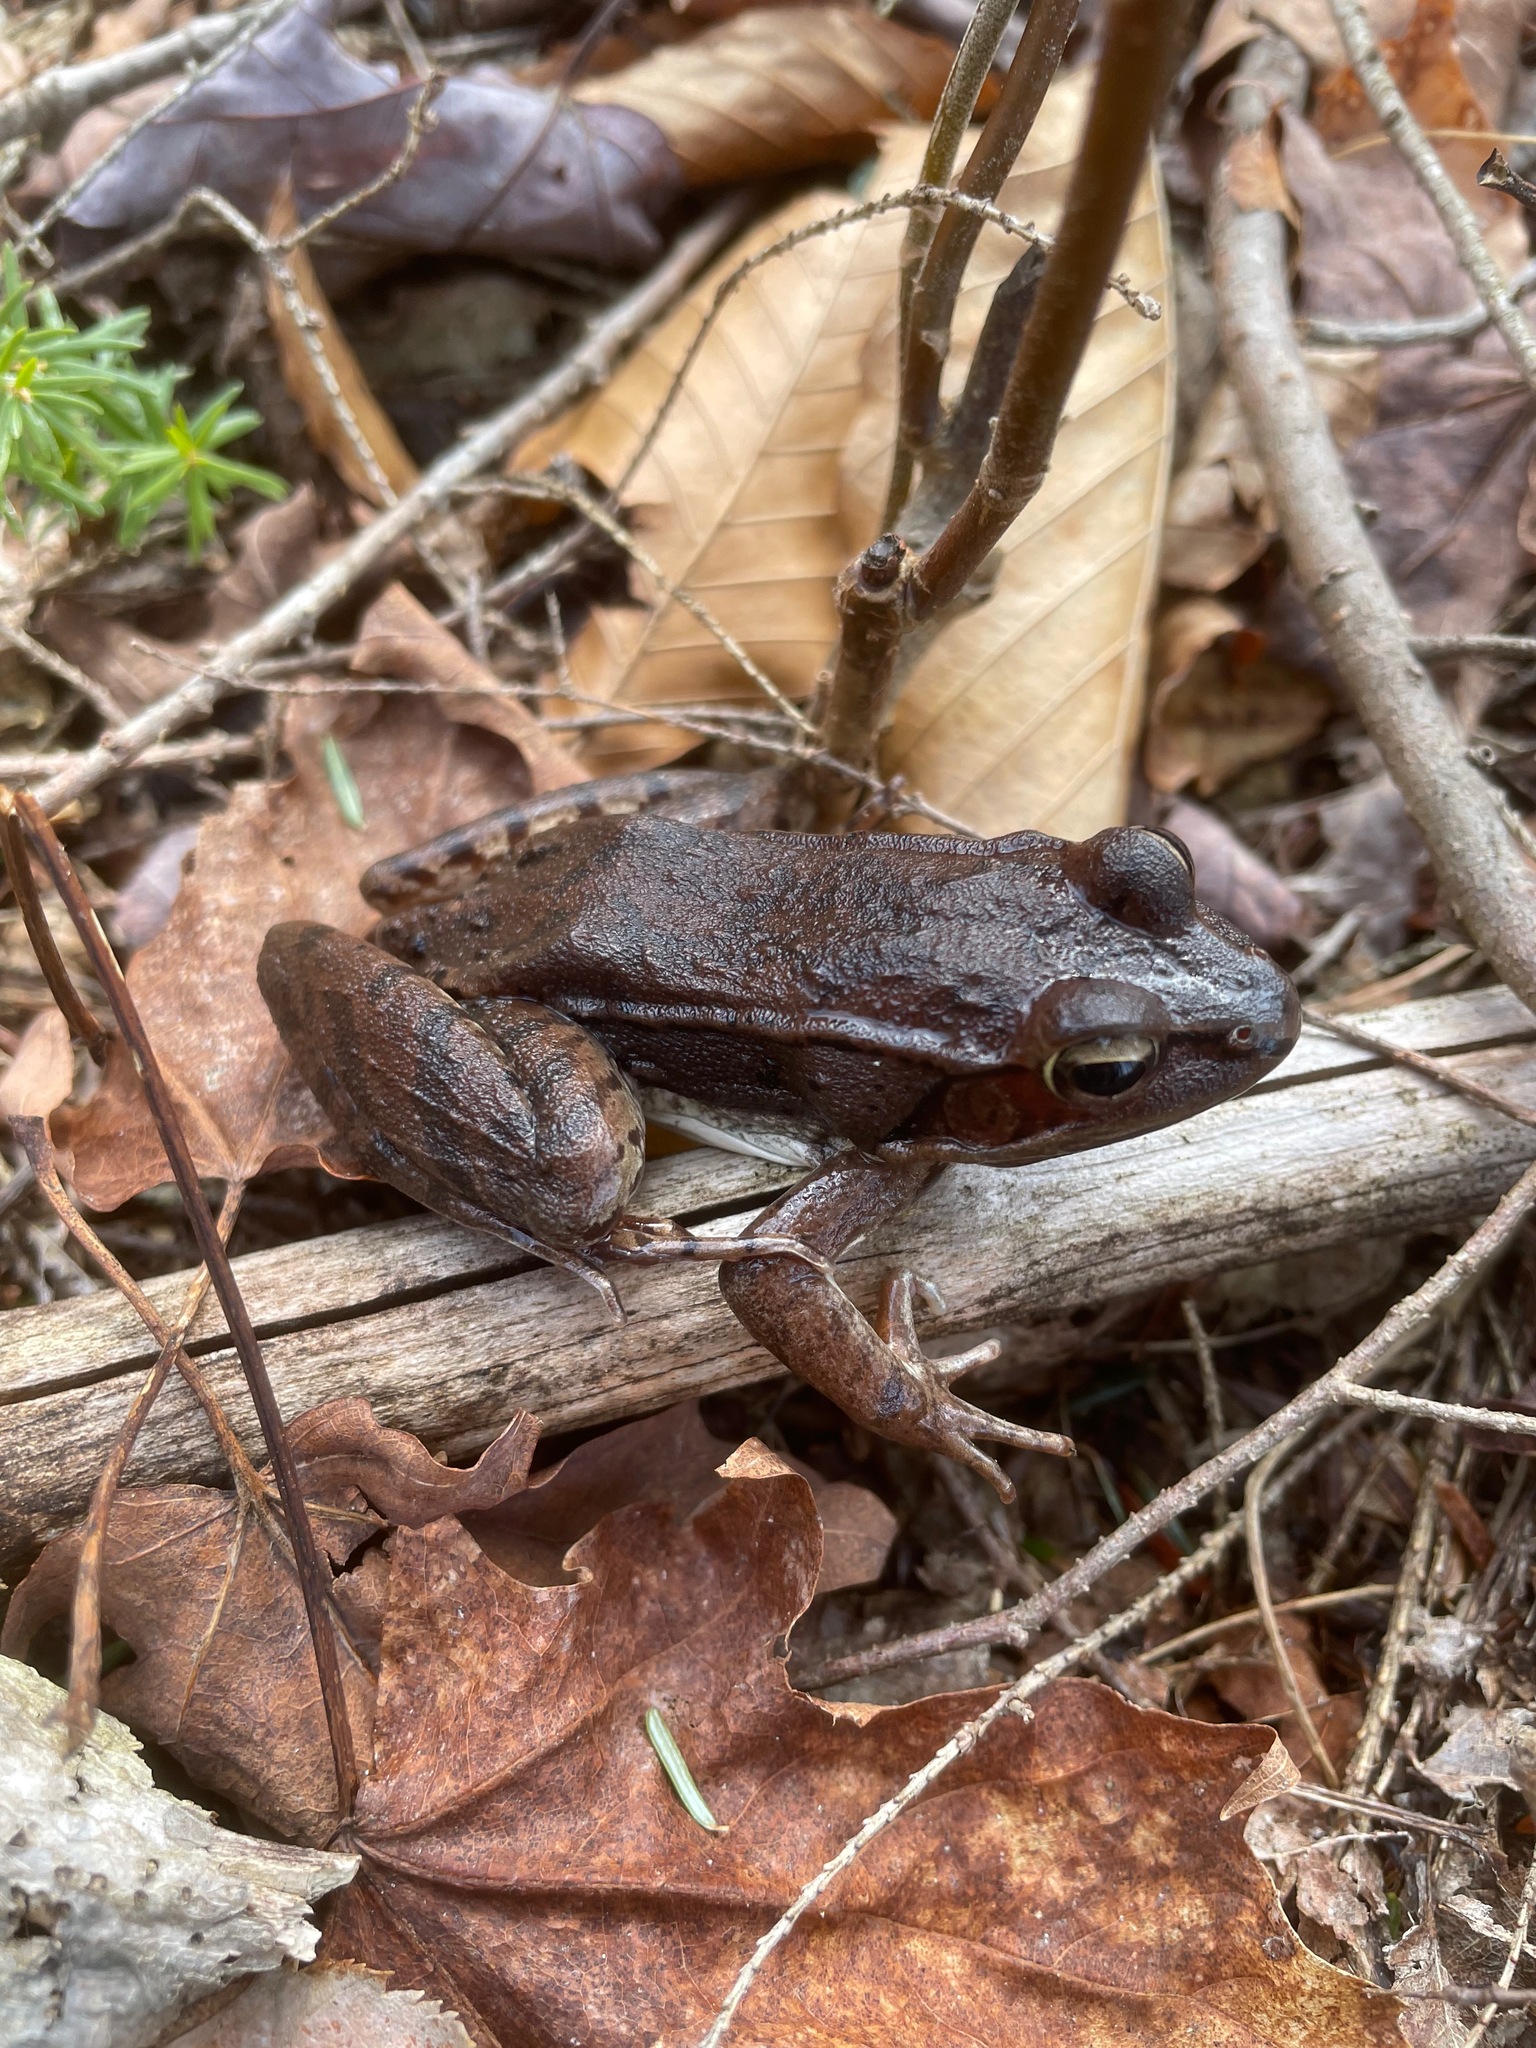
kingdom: Animalia
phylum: Chordata
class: Amphibia
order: Anura
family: Ranidae
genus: Lithobates
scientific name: Lithobates sylvaticus
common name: Wood frog
